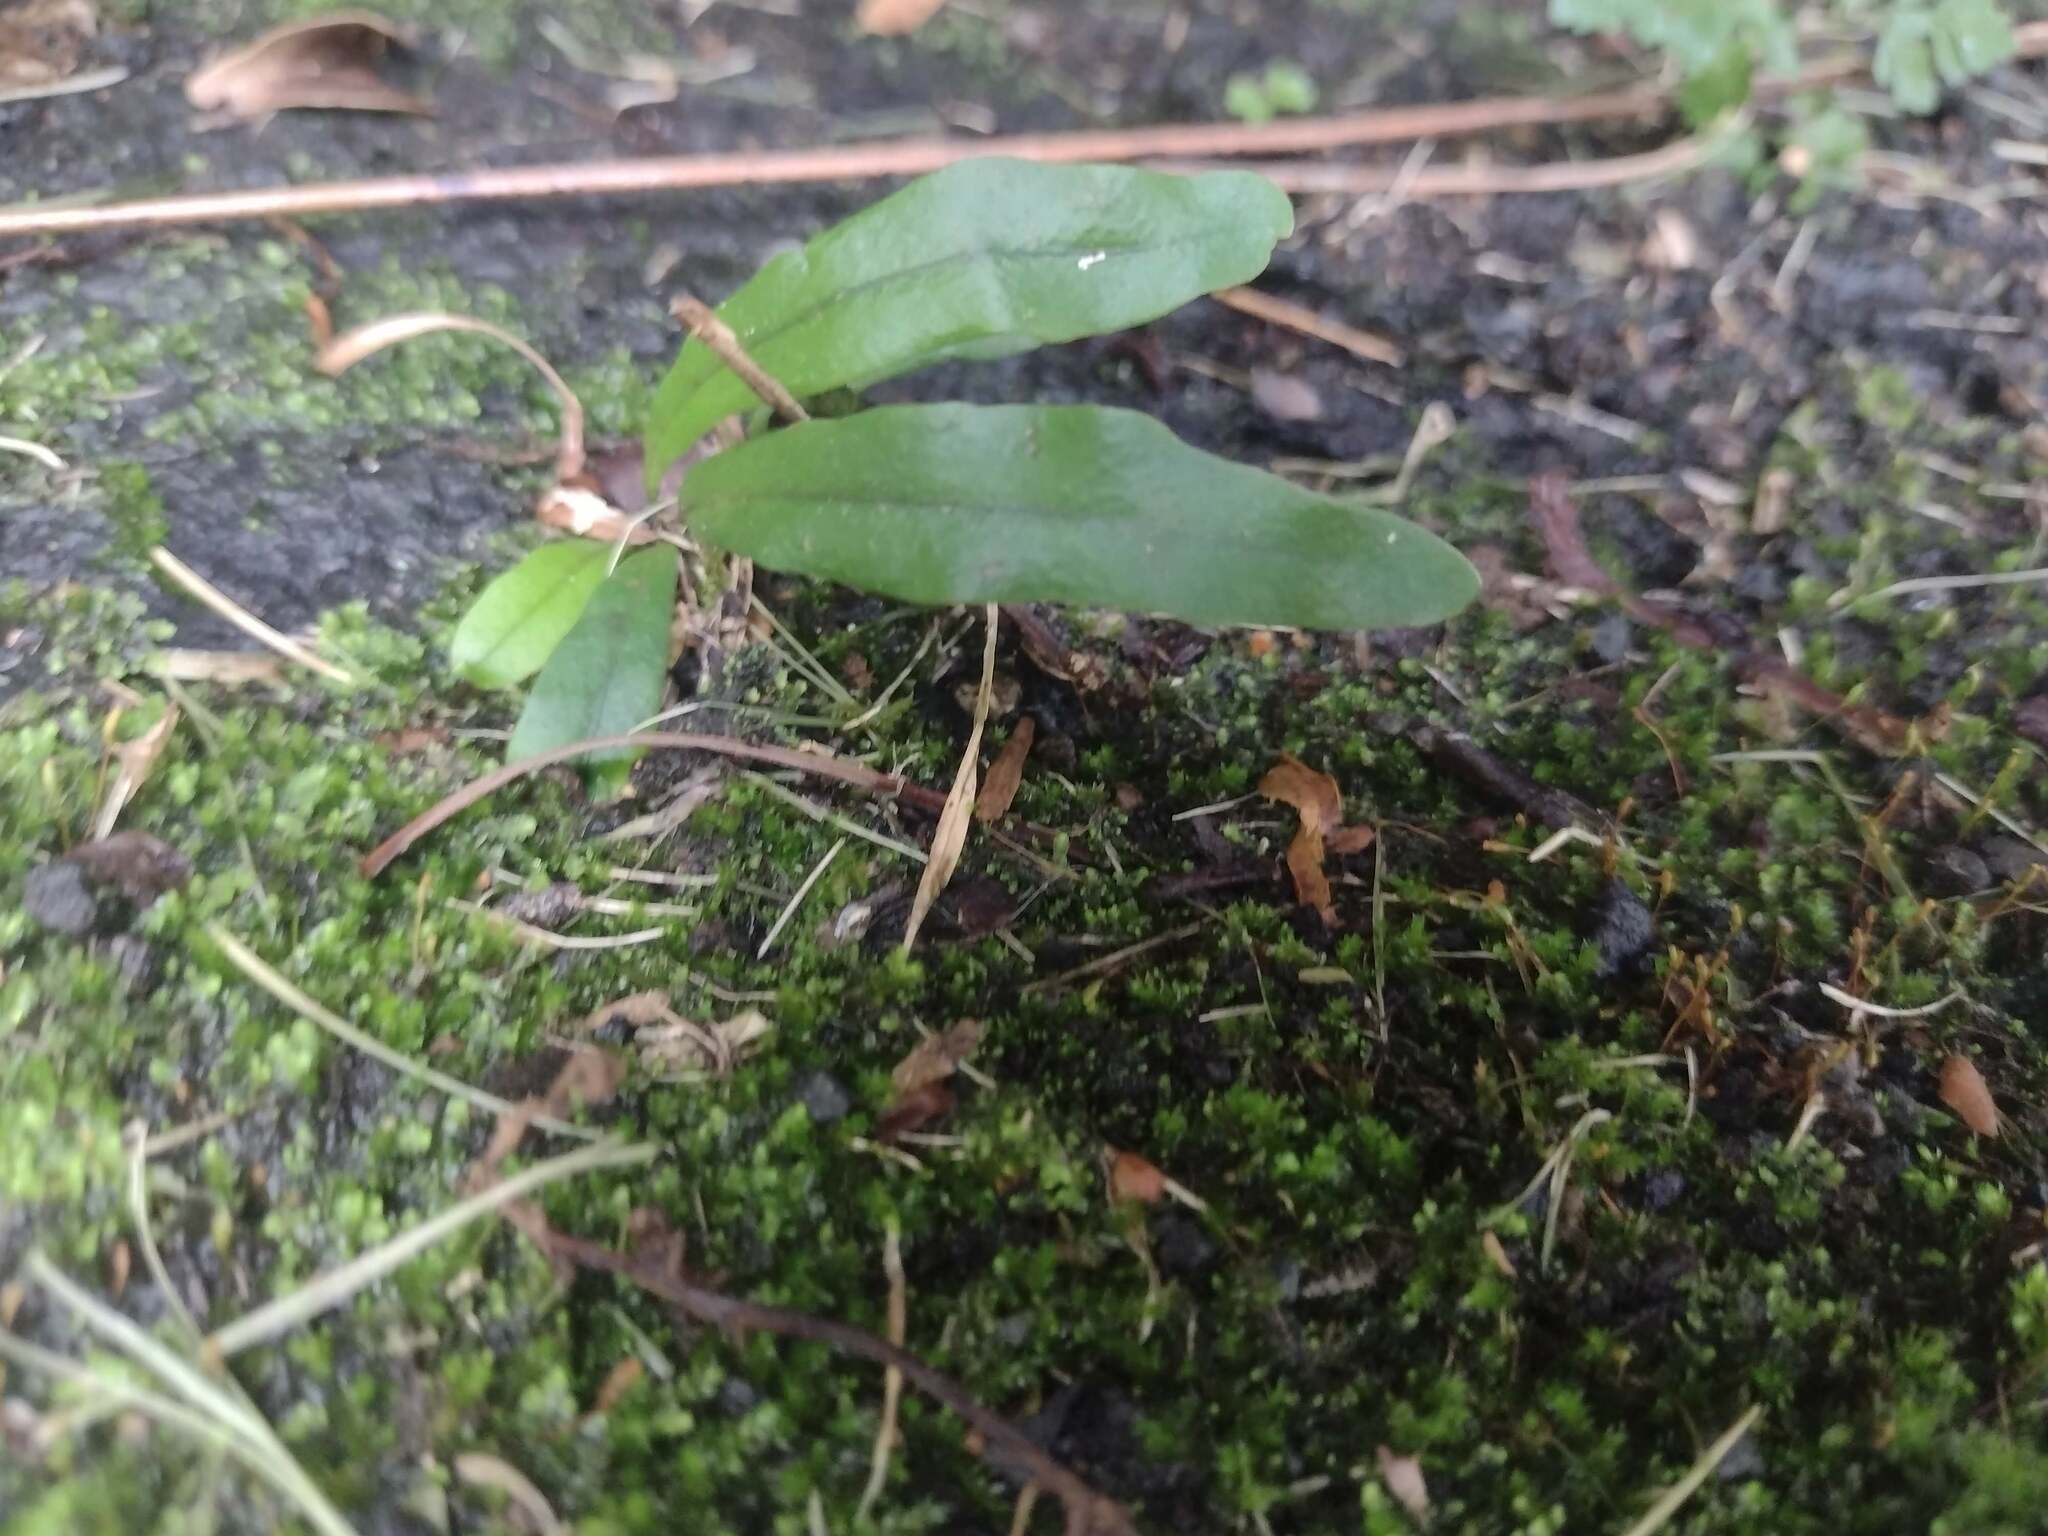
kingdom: Plantae
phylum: Tracheophyta
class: Polypodiopsida
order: Polypodiales
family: Polypodiaceae
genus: Lepisorus
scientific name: Lepisorus thunbergianus
